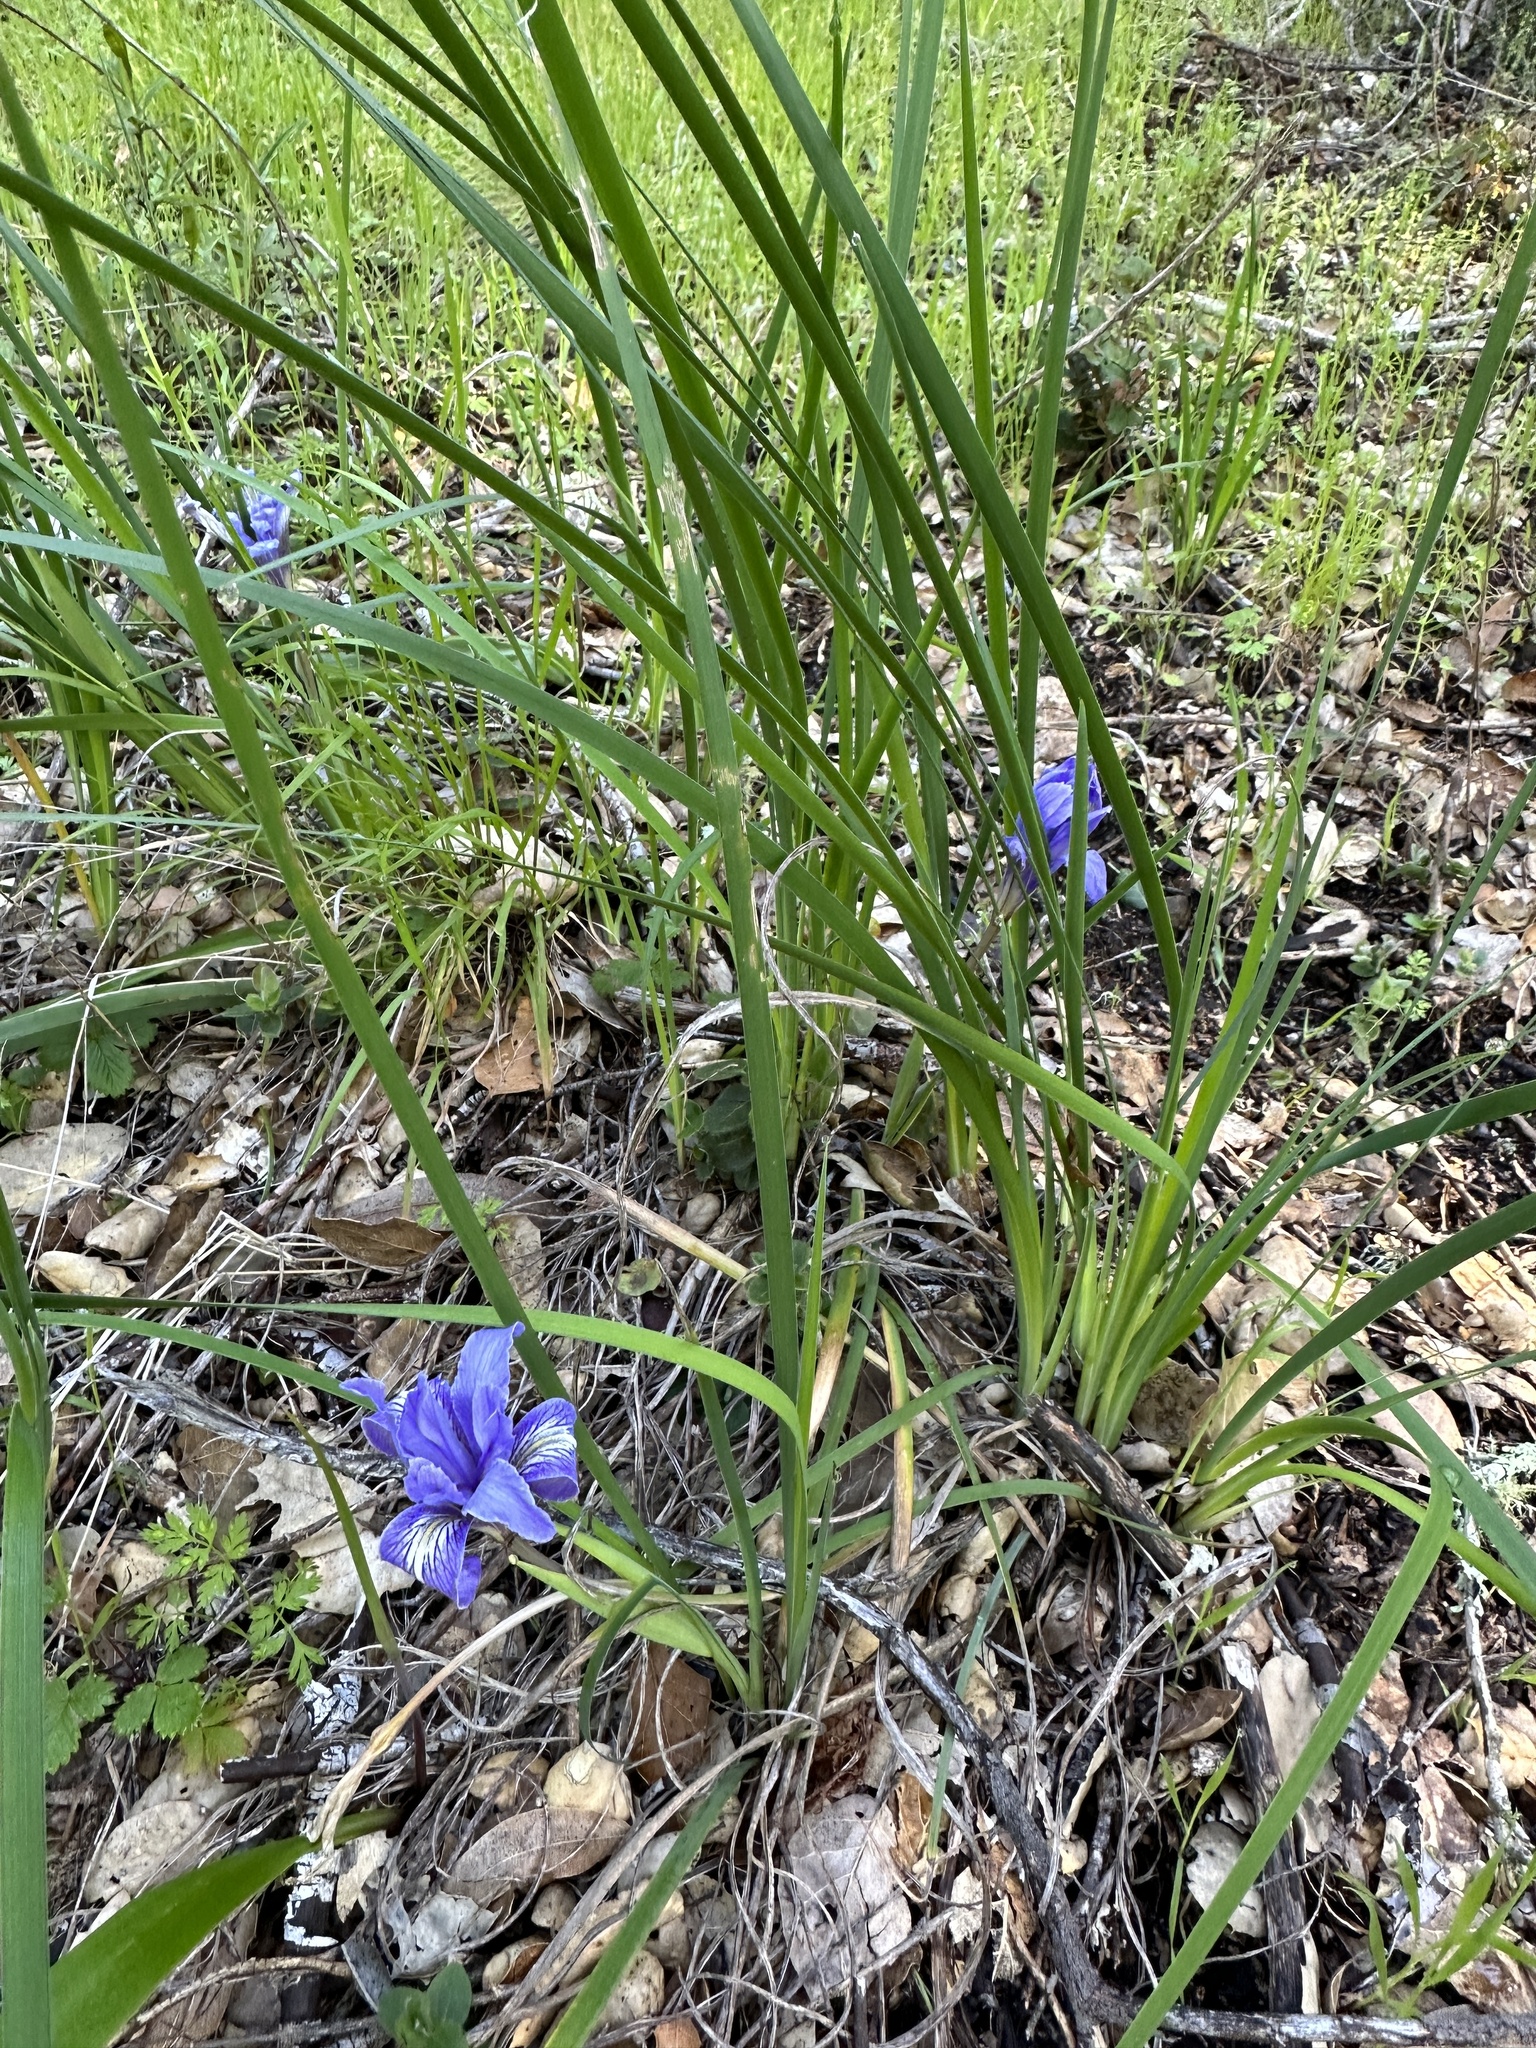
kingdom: Plantae
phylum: Tracheophyta
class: Liliopsida
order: Asparagales
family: Iridaceae
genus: Iris
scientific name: Iris macrosiphon
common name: Ground iris
